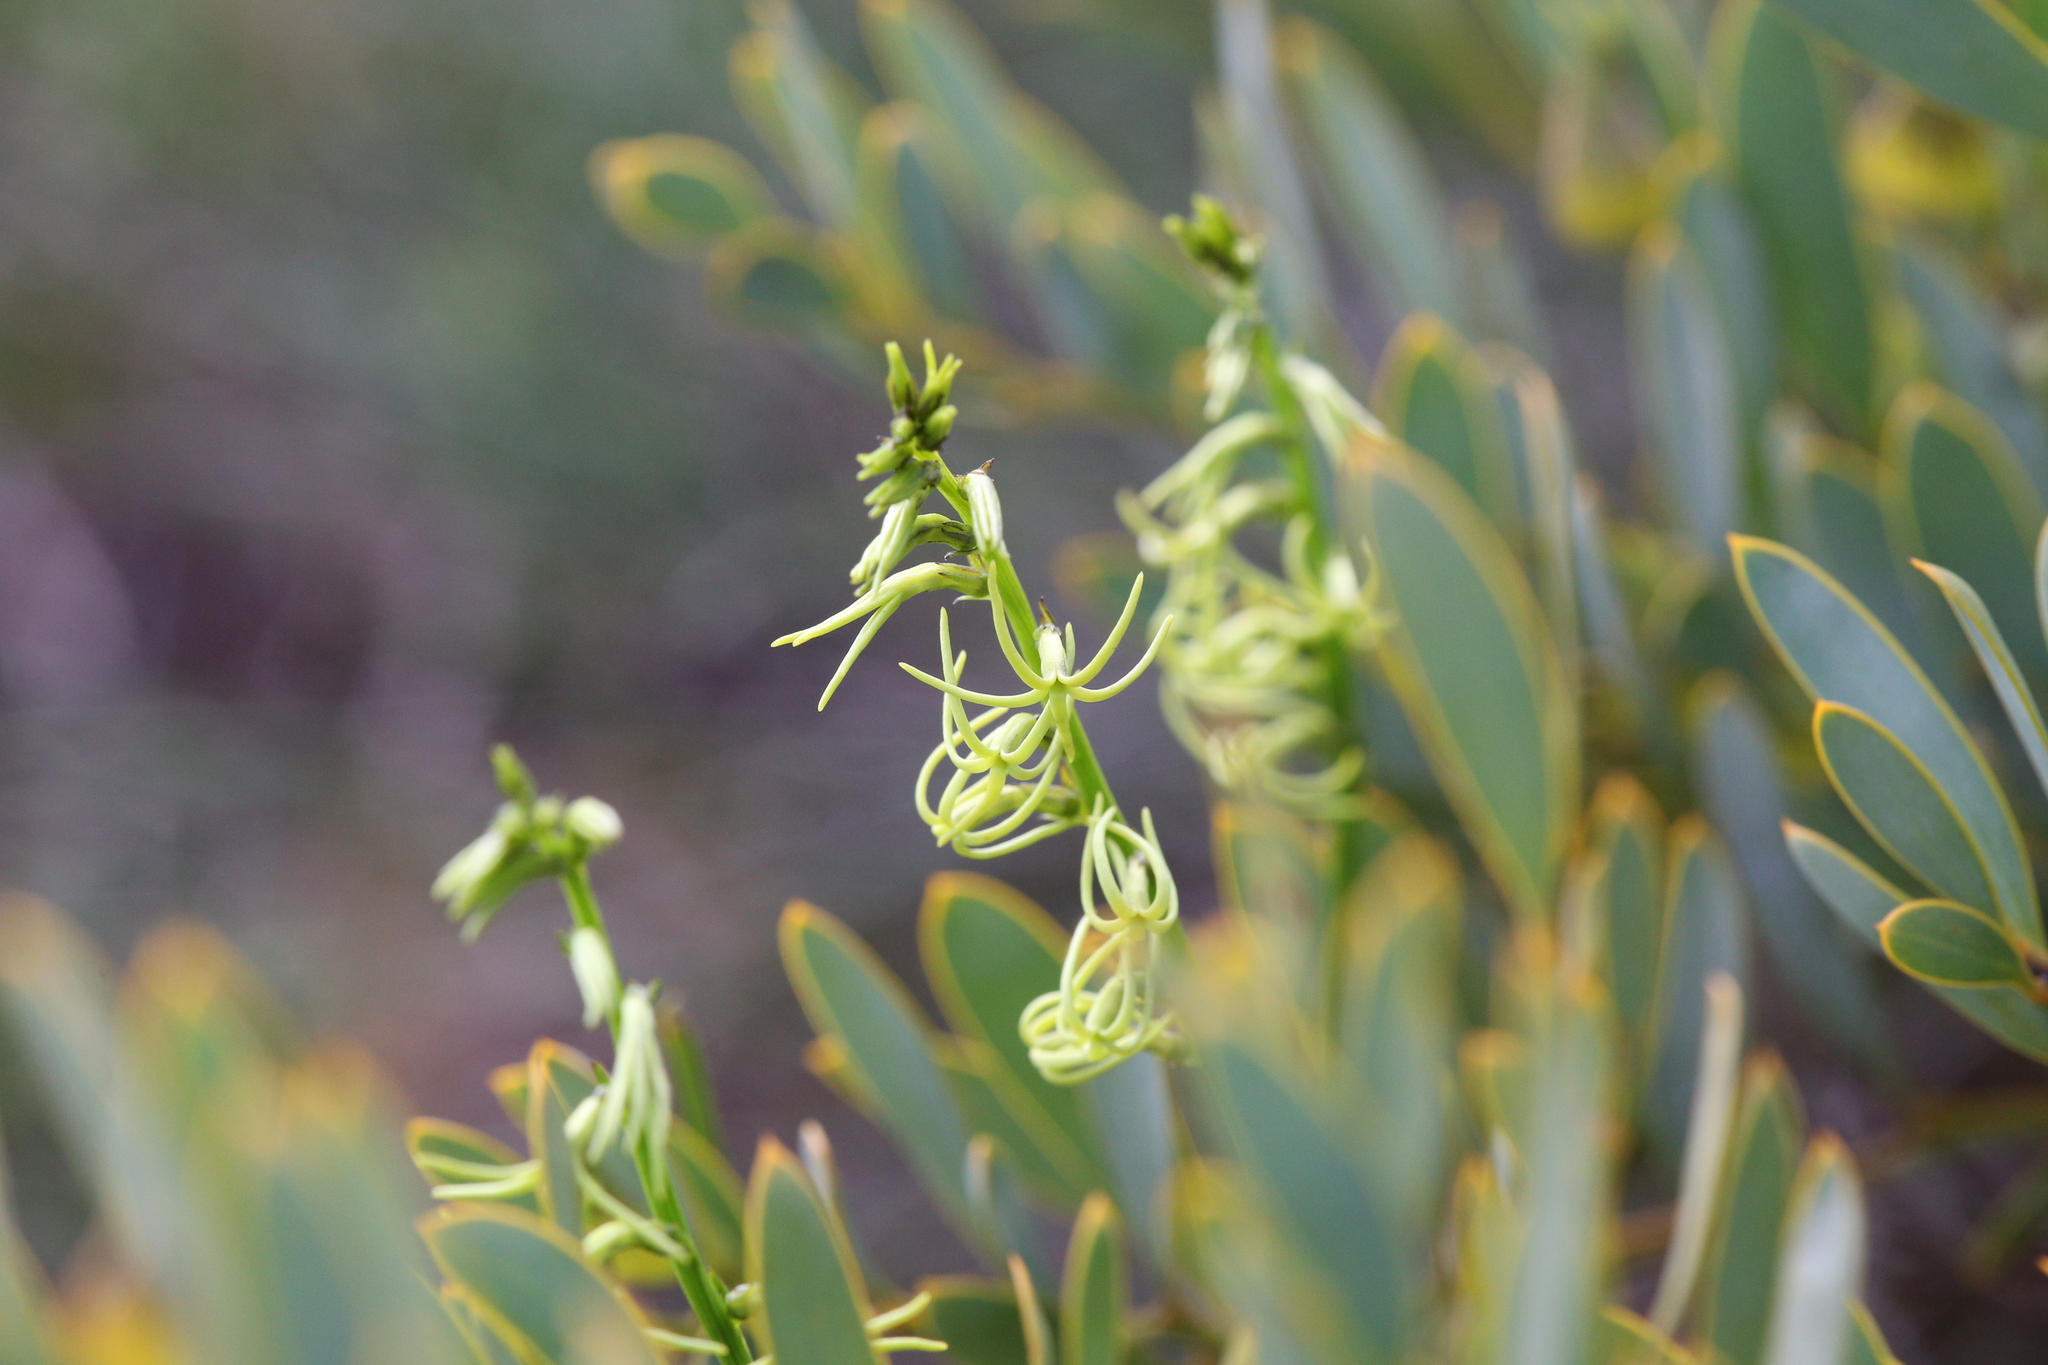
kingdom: Plantae
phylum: Tracheophyta
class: Magnoliopsida
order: Celastrales
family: Celastraceae
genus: Tripterococcus
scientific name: Tripterococcus brunonis
